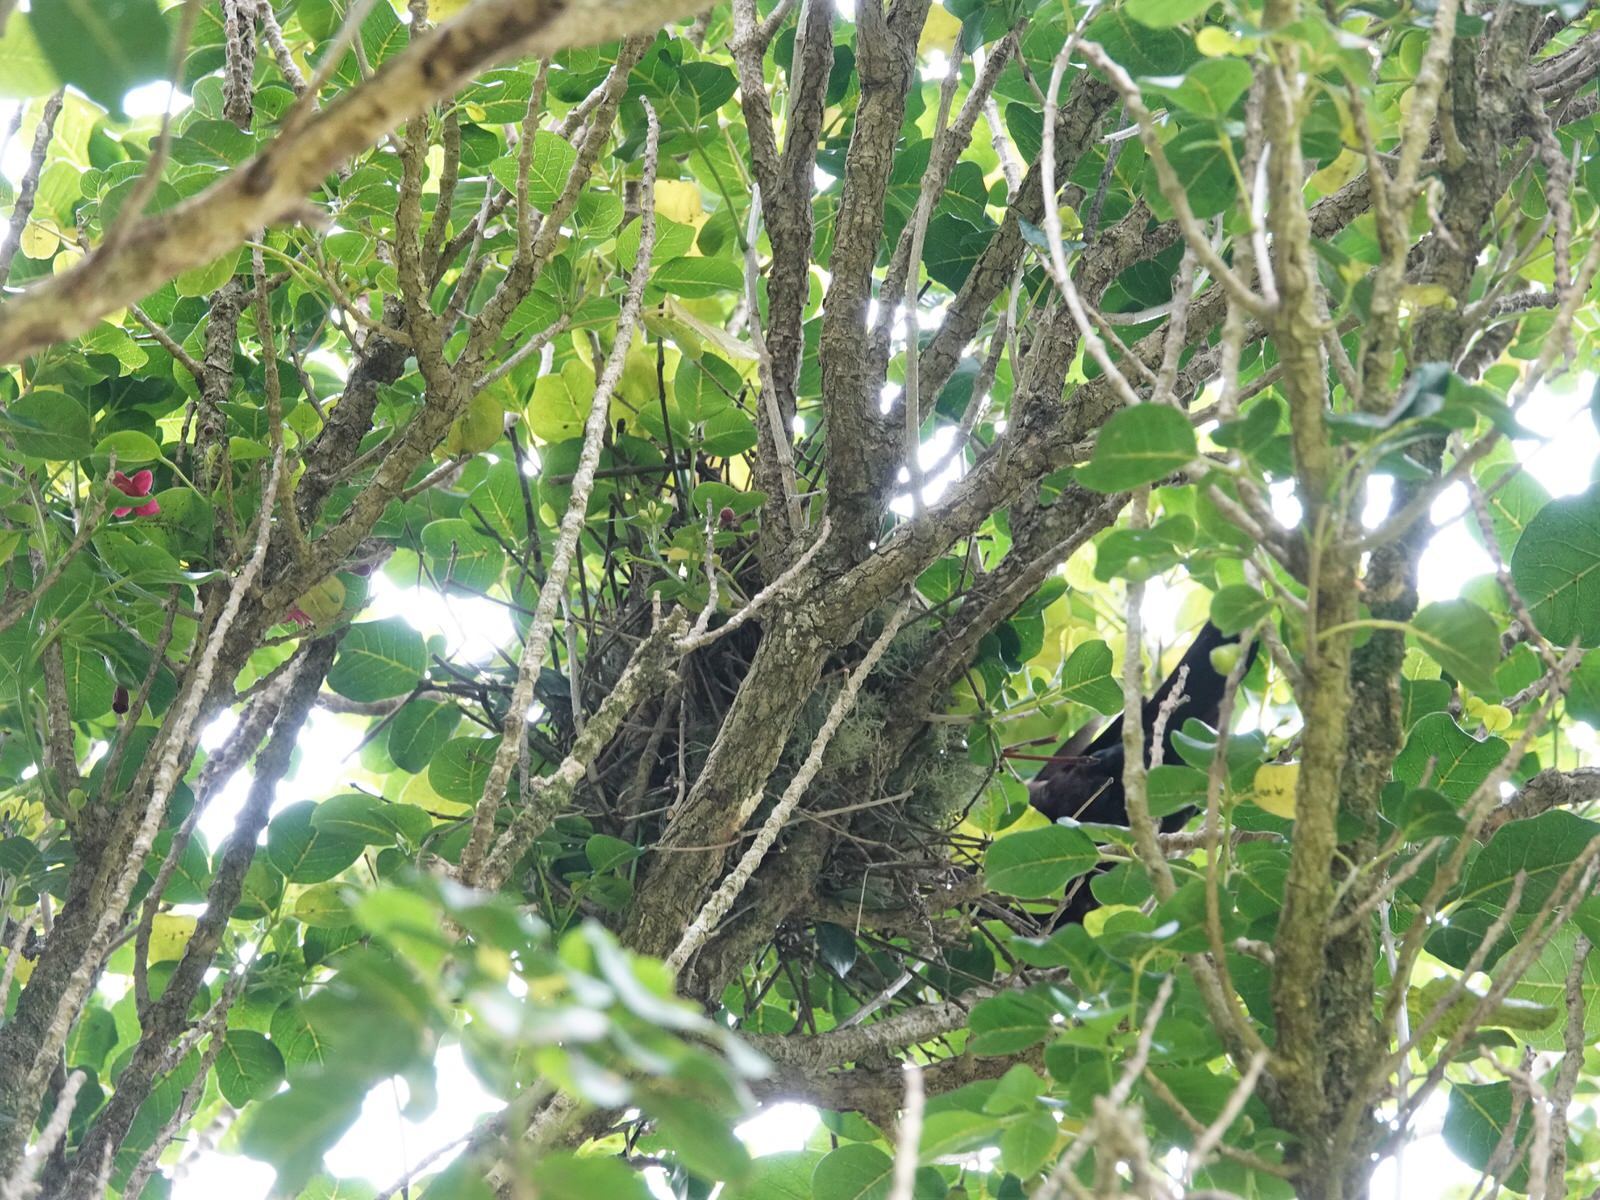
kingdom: Animalia
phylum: Chordata
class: Aves
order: Passeriformes
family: Meliphagidae
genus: Prosthemadera
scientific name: Prosthemadera novaeseelandiae
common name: Tui
